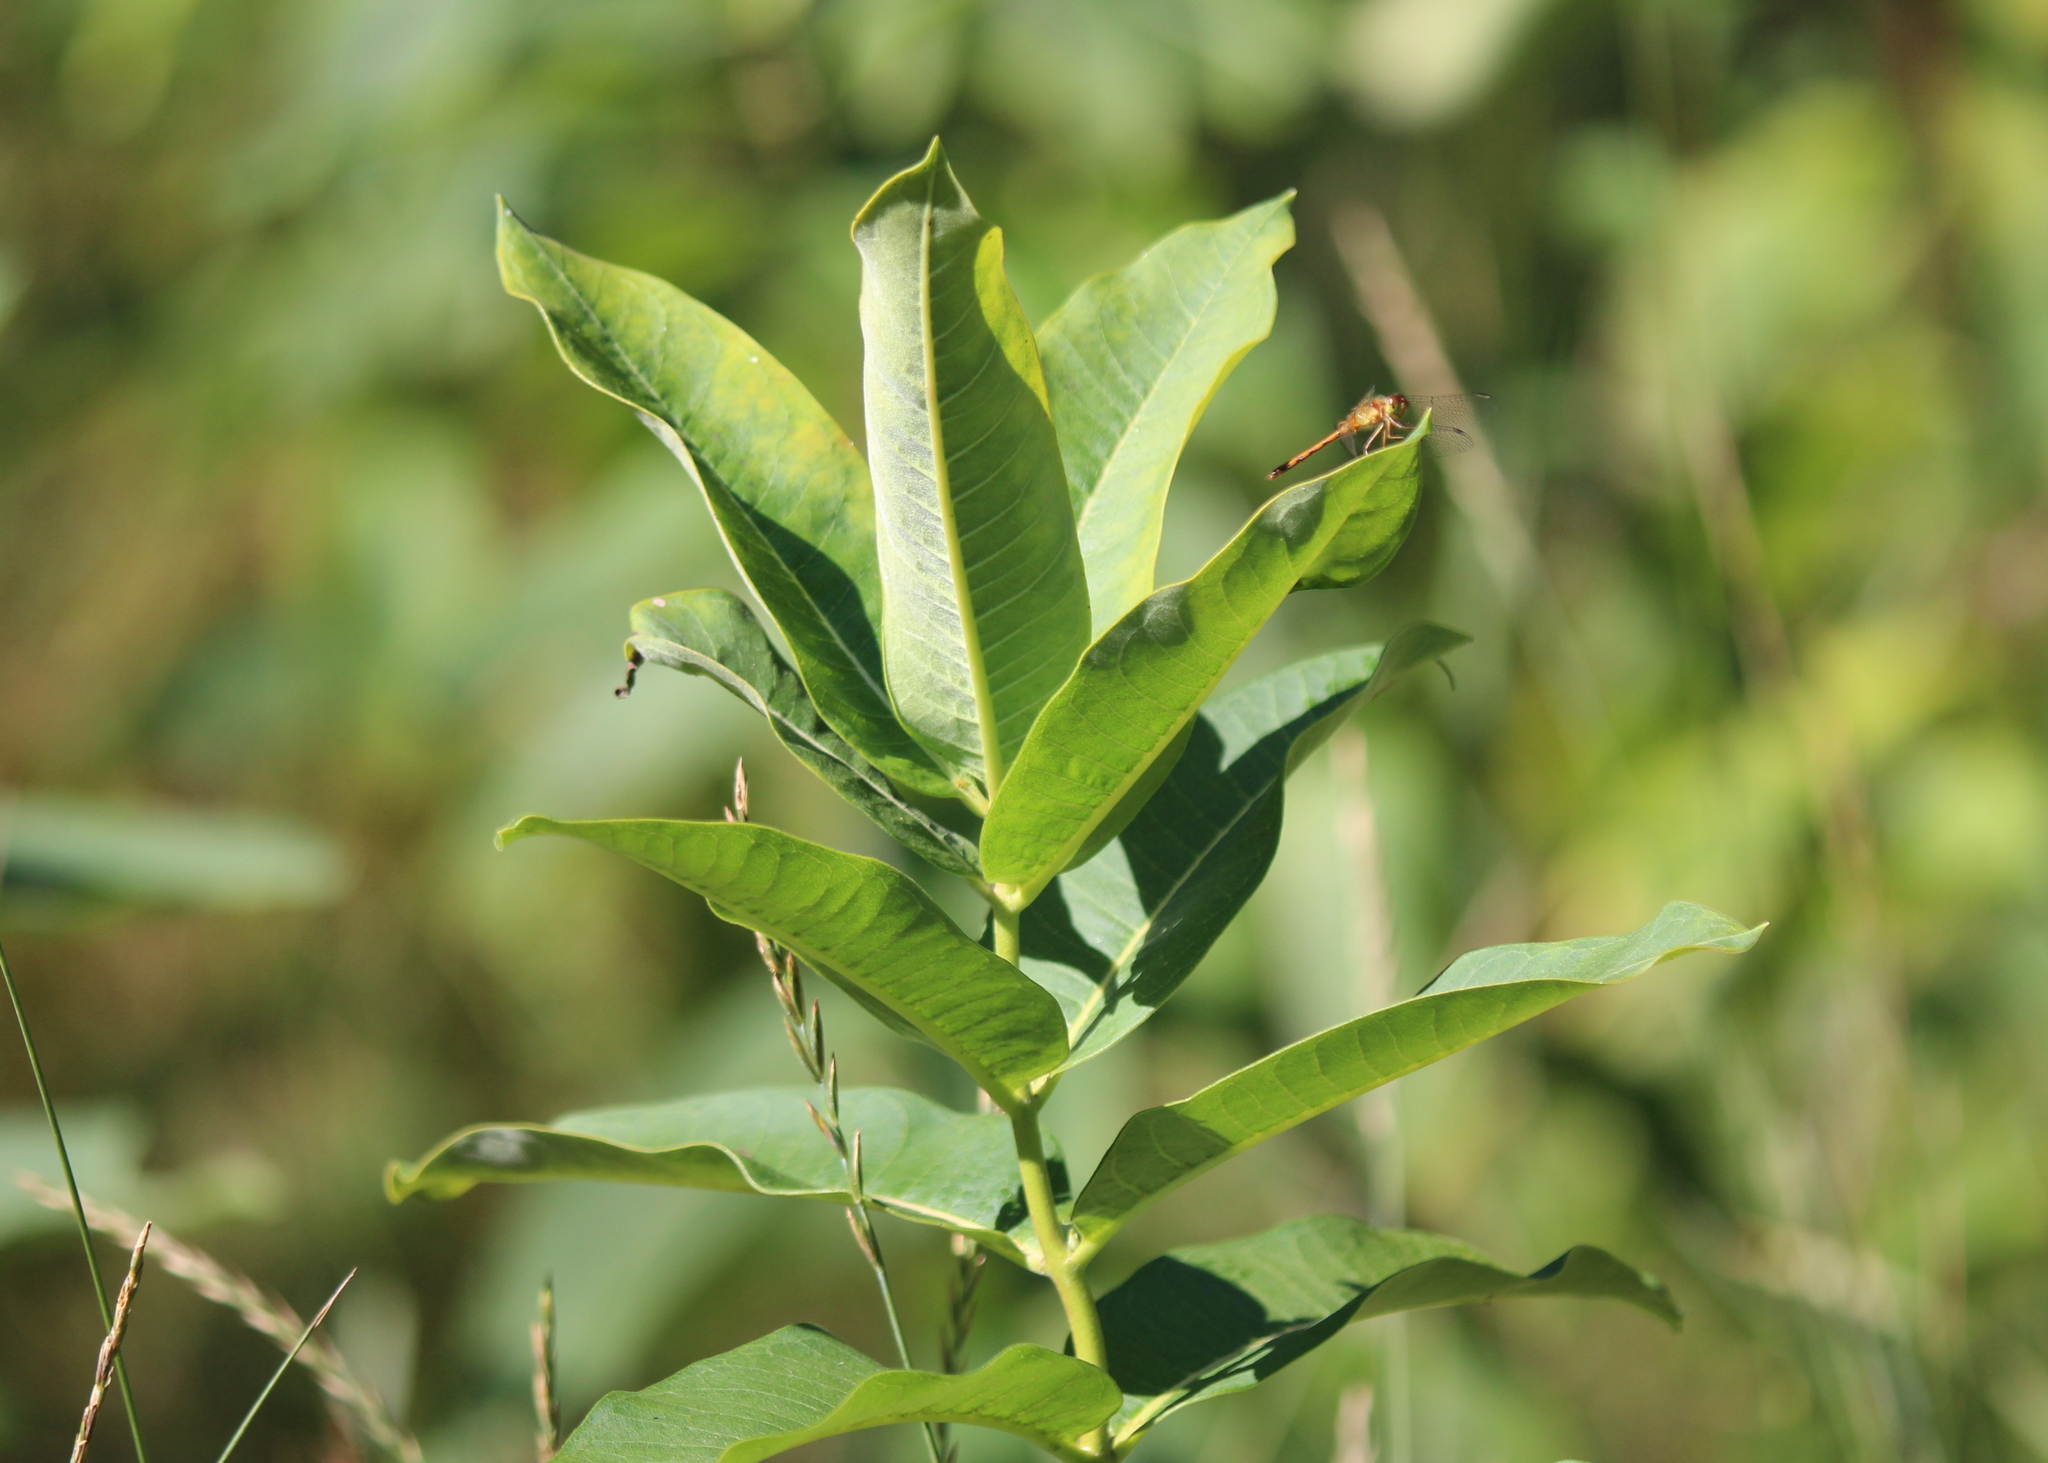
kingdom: Plantae
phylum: Tracheophyta
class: Magnoliopsida
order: Gentianales
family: Apocynaceae
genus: Asclepias
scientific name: Asclepias syriaca
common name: Common milkweed
